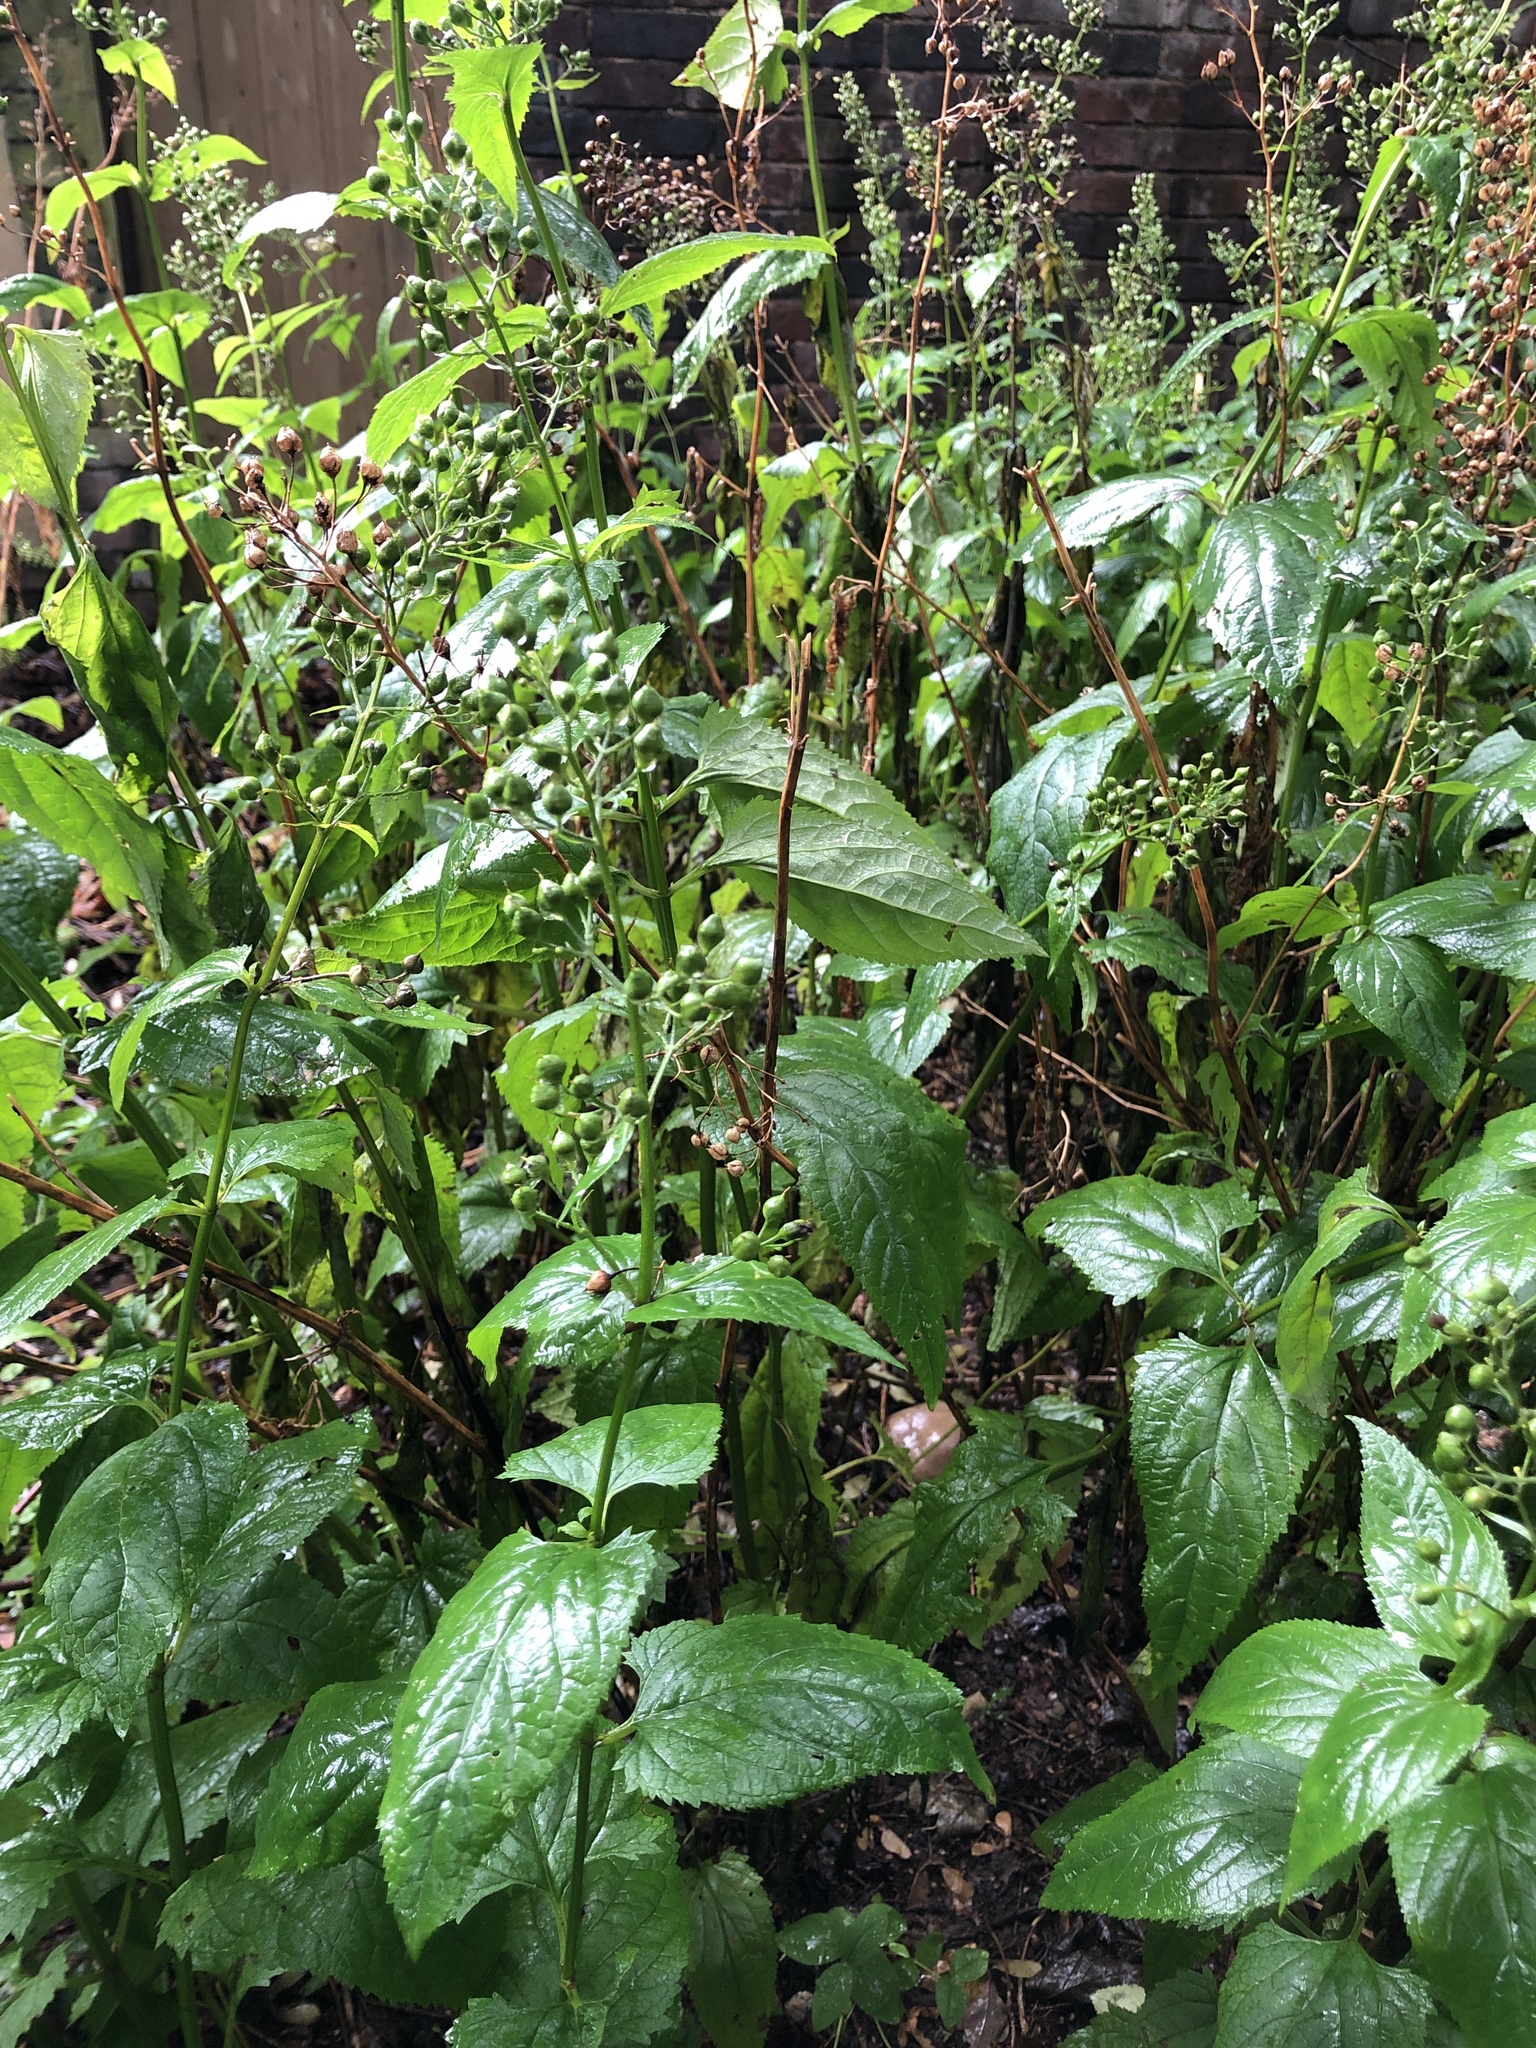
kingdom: Plantae
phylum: Tracheophyta
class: Magnoliopsida
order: Lamiales
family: Scrophulariaceae
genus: Scrophularia
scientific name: Scrophularia nodosa
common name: Common figwort
